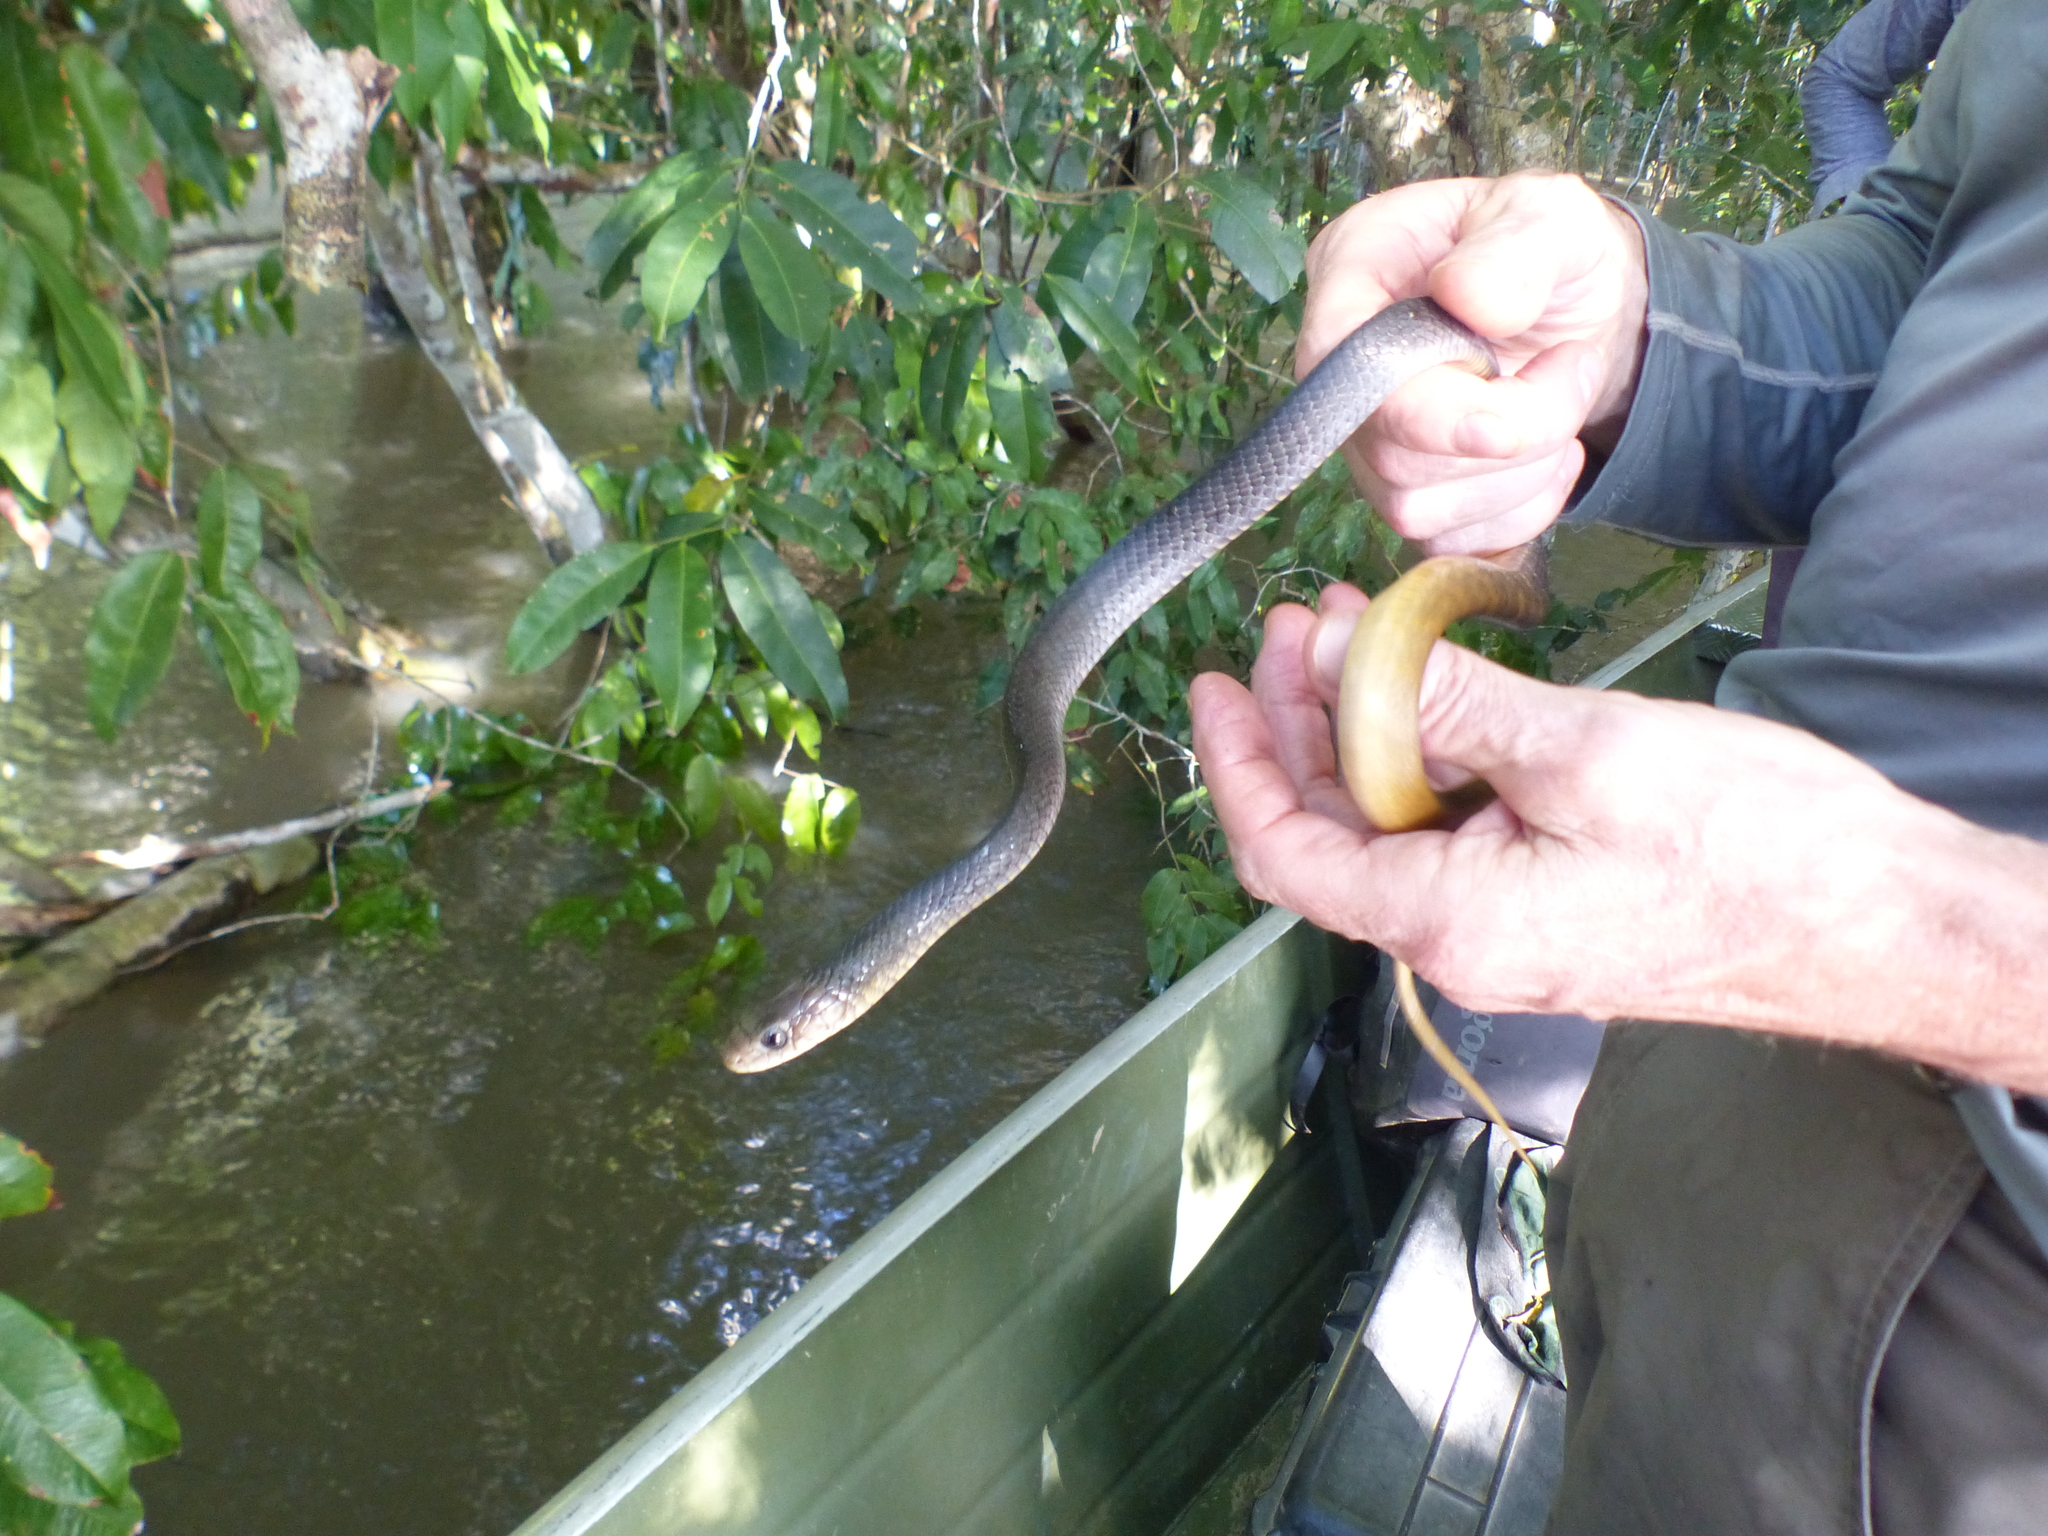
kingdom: Animalia
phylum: Chordata
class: Squamata
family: Colubridae
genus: Drymarchon
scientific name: Drymarchon corais
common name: Indigo snake
